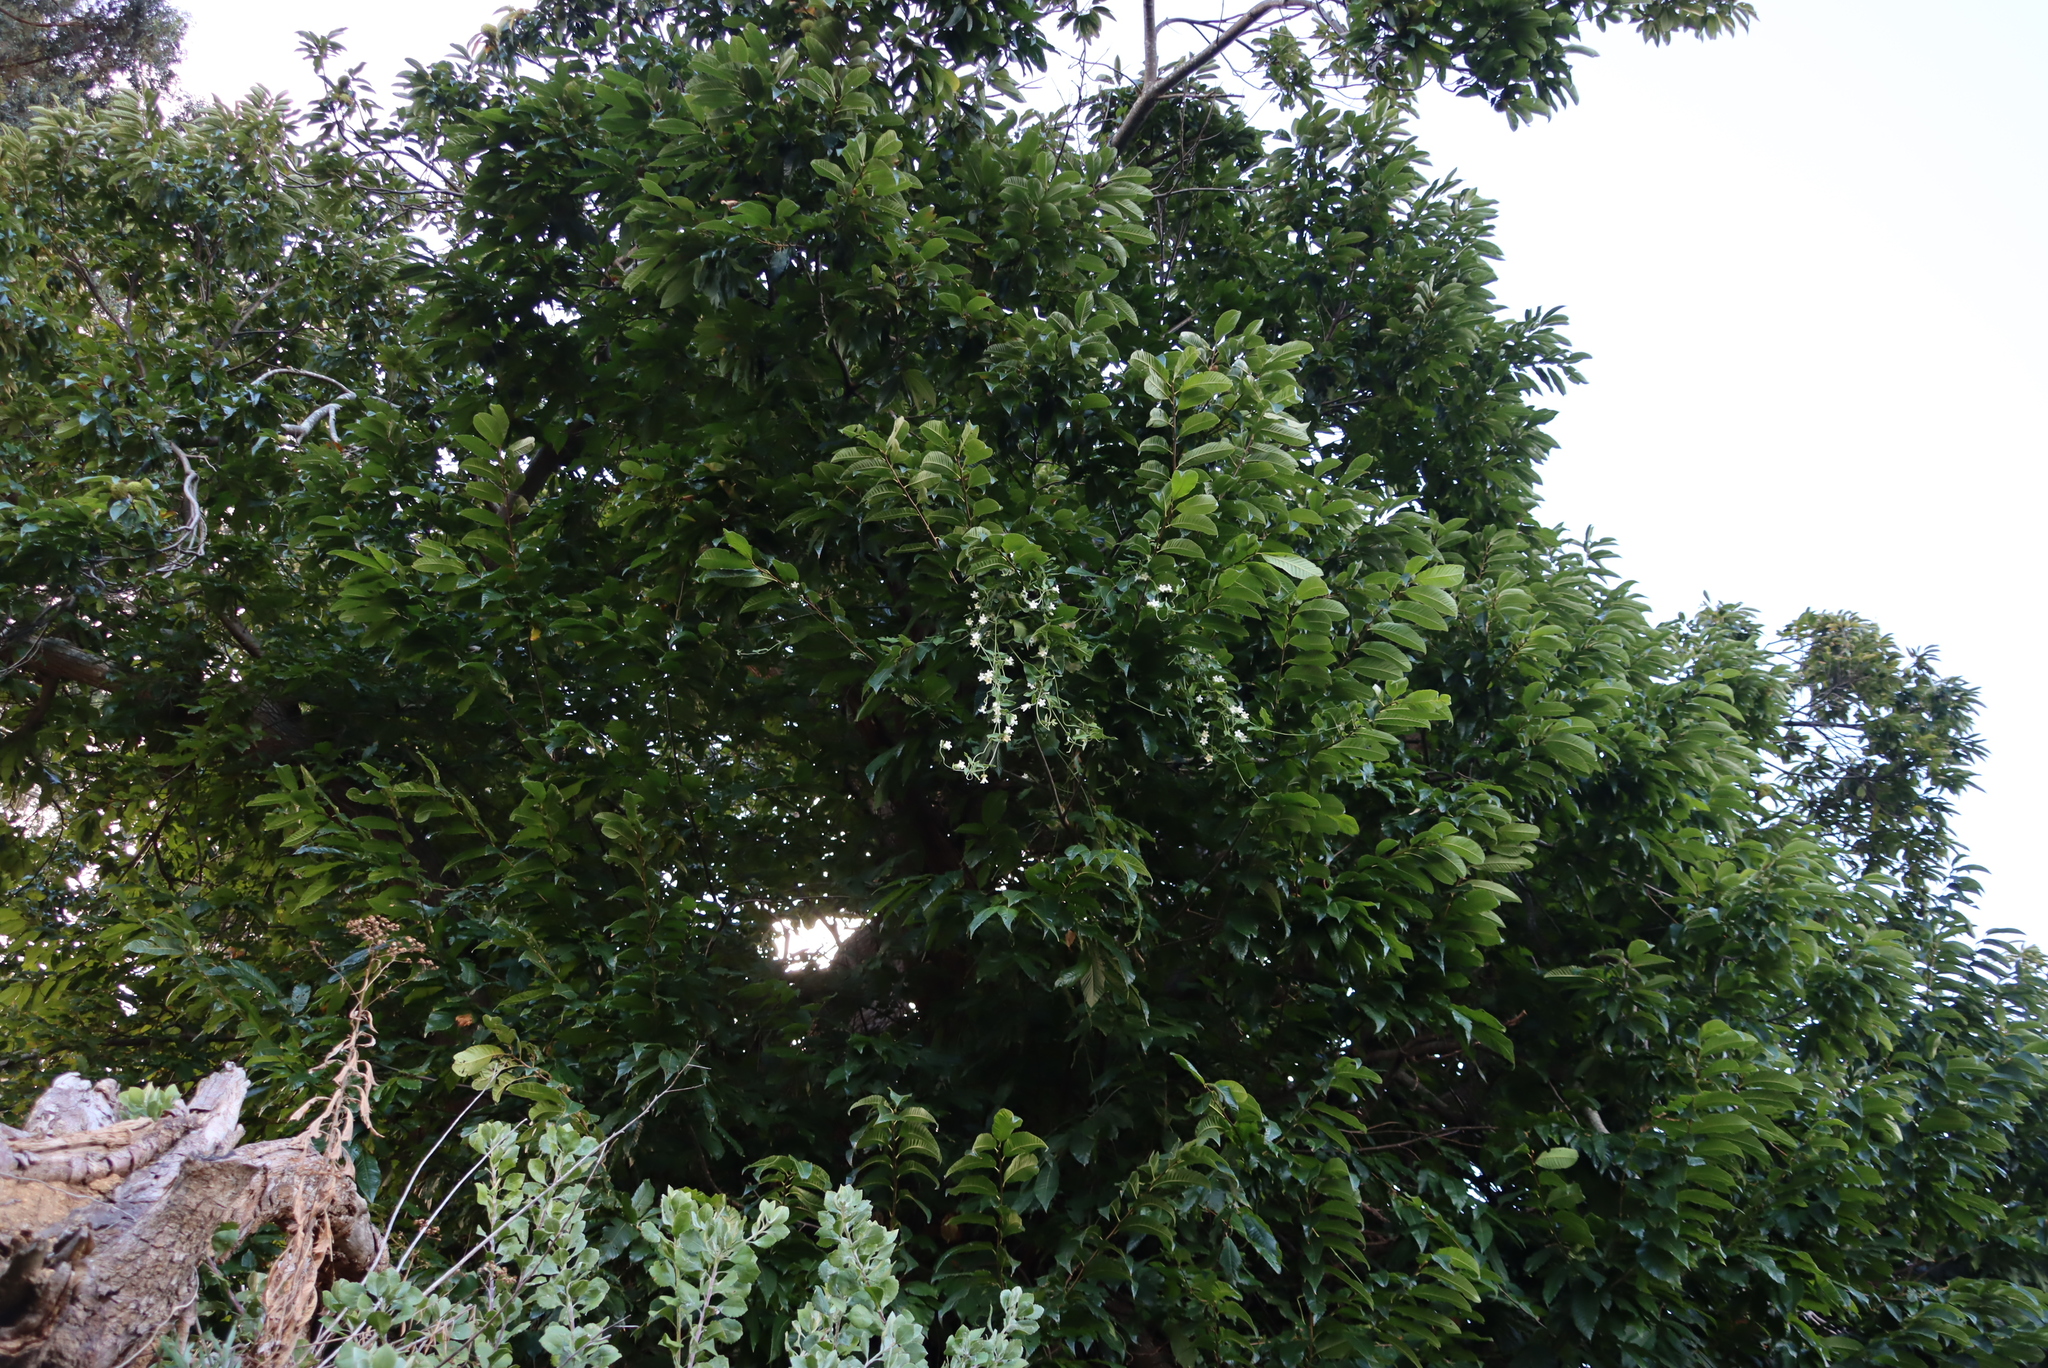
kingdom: Plantae
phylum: Tracheophyta
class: Magnoliopsida
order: Gentianales
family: Apocynaceae
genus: Araujia
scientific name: Araujia sericifera
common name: White bladderflower
